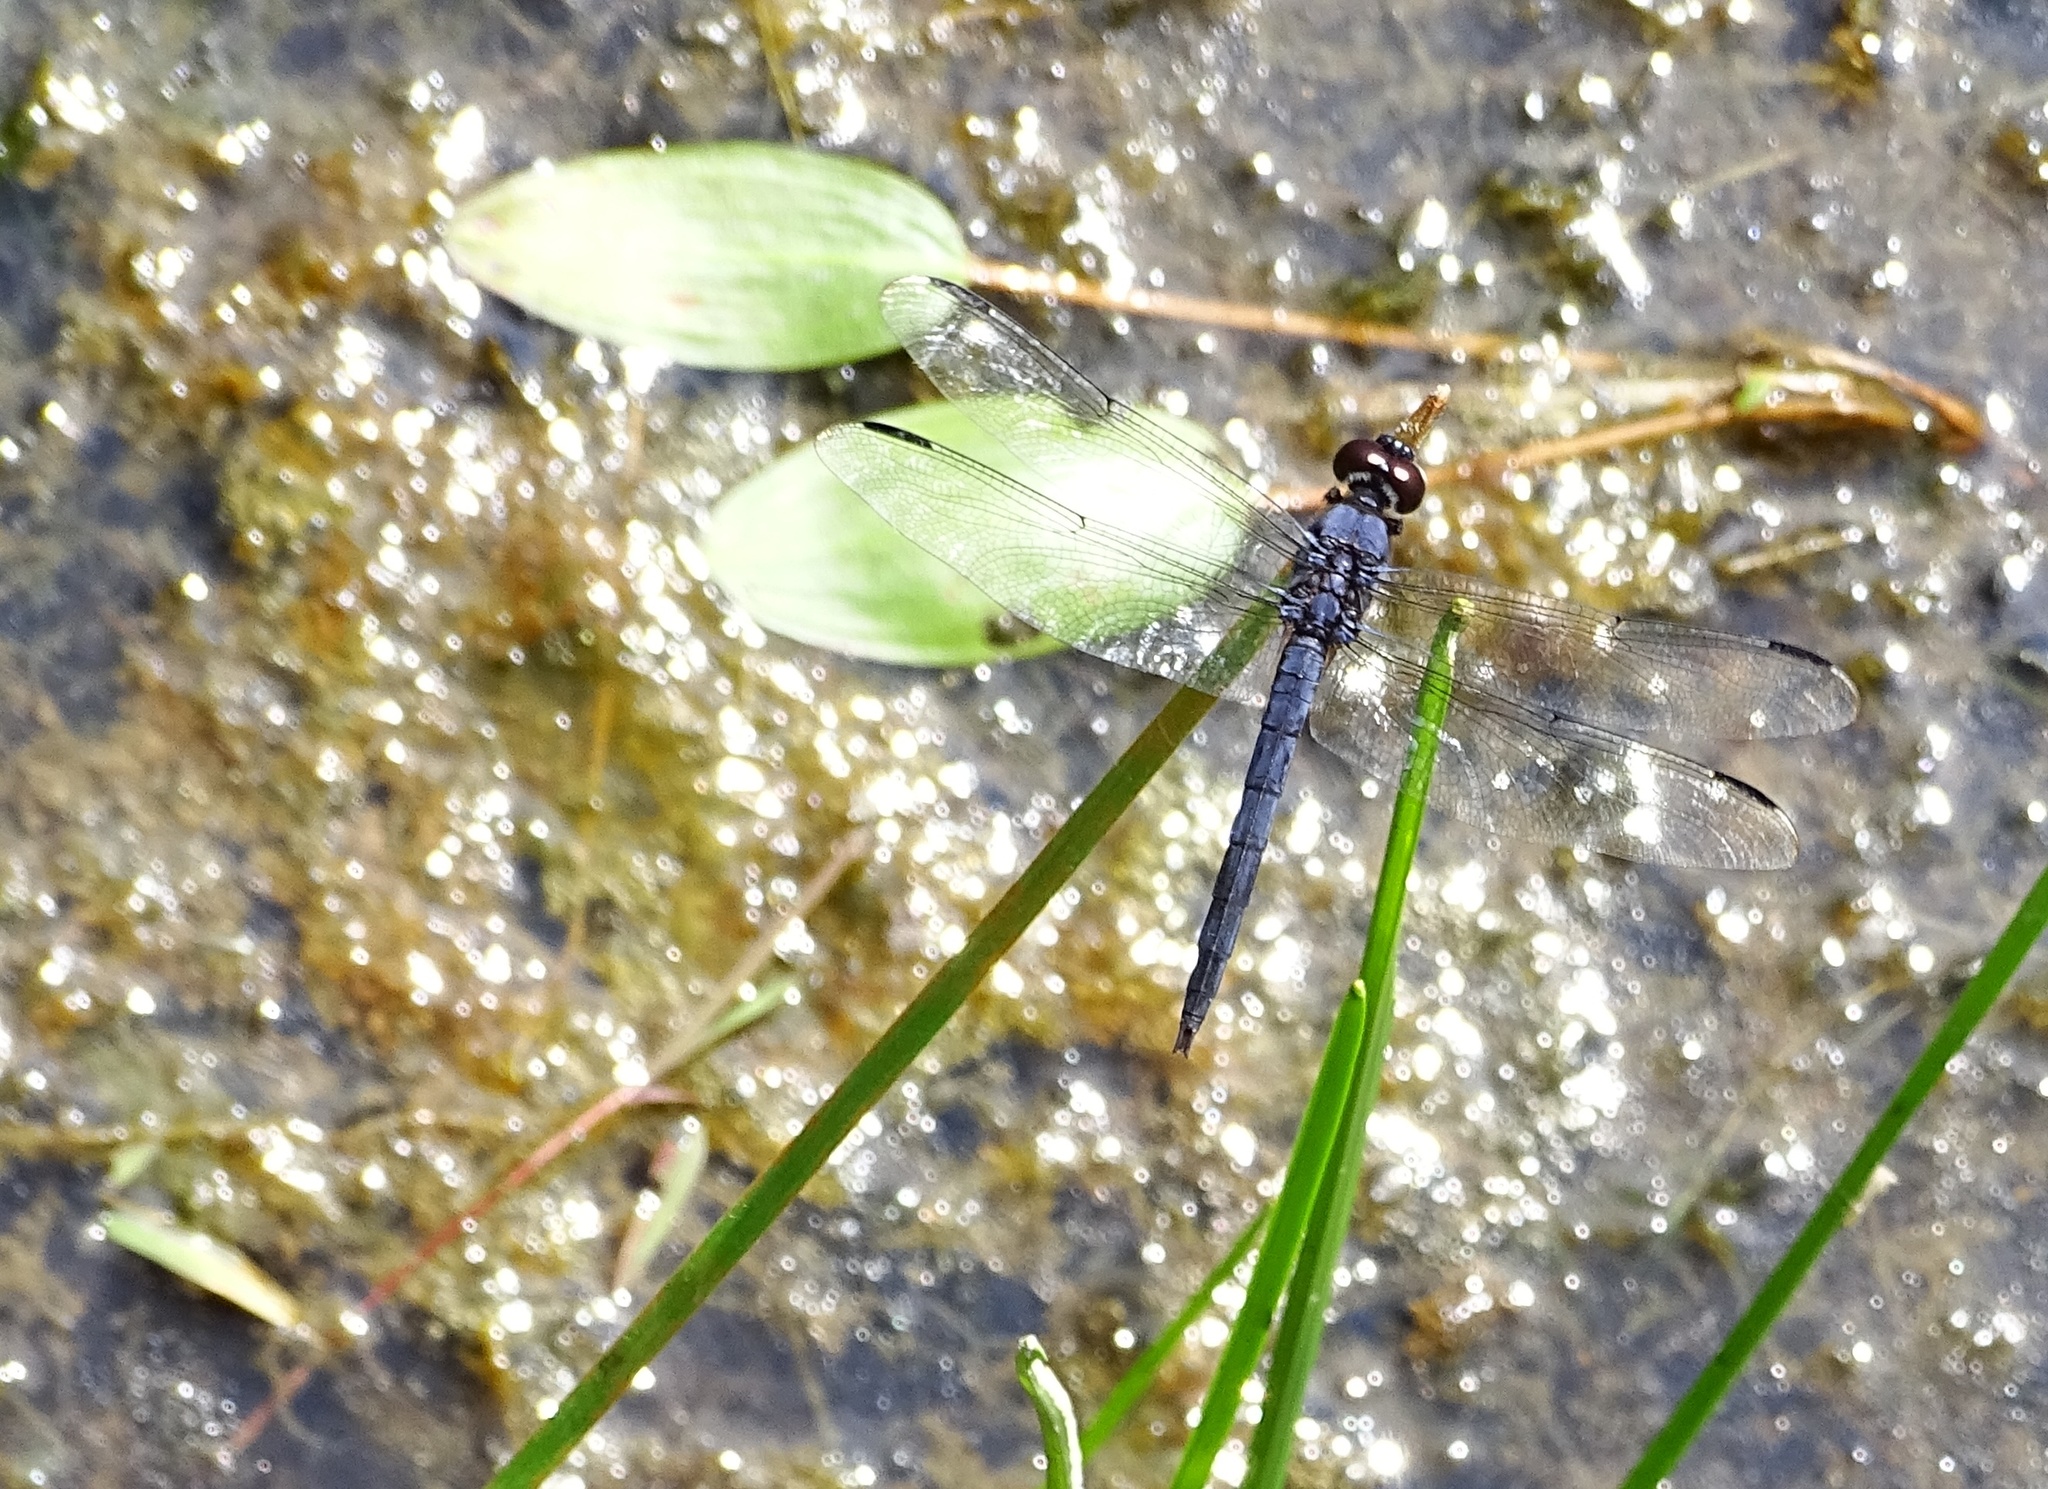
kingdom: Animalia
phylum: Arthropoda
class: Insecta
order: Odonata
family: Libellulidae
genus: Libellula
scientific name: Libellula incesta
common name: Slaty skimmer
